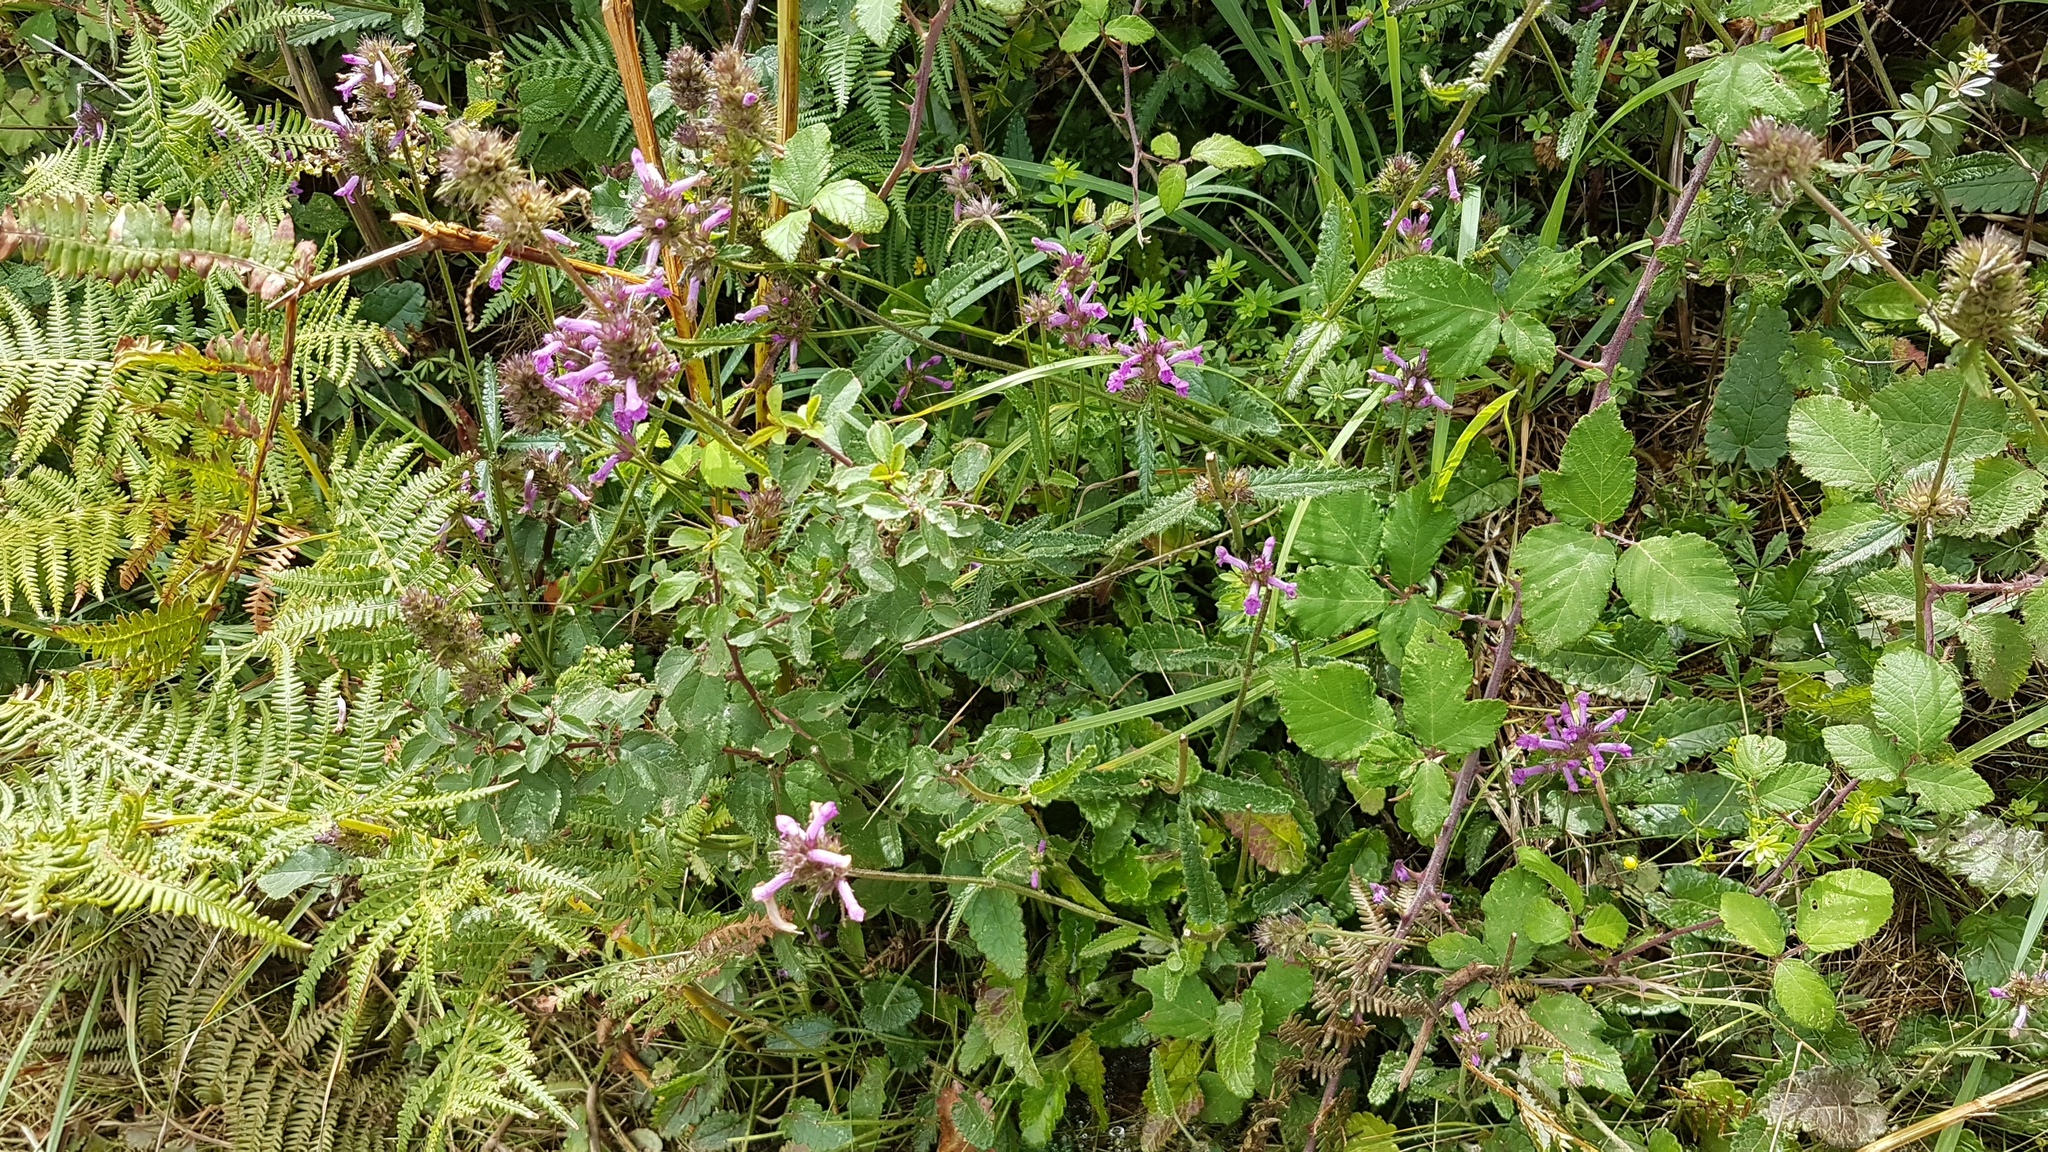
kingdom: Plantae
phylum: Tracheophyta
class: Magnoliopsida
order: Lamiales
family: Lamiaceae
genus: Betonica
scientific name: Betonica officinalis
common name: Bishop's-wort
